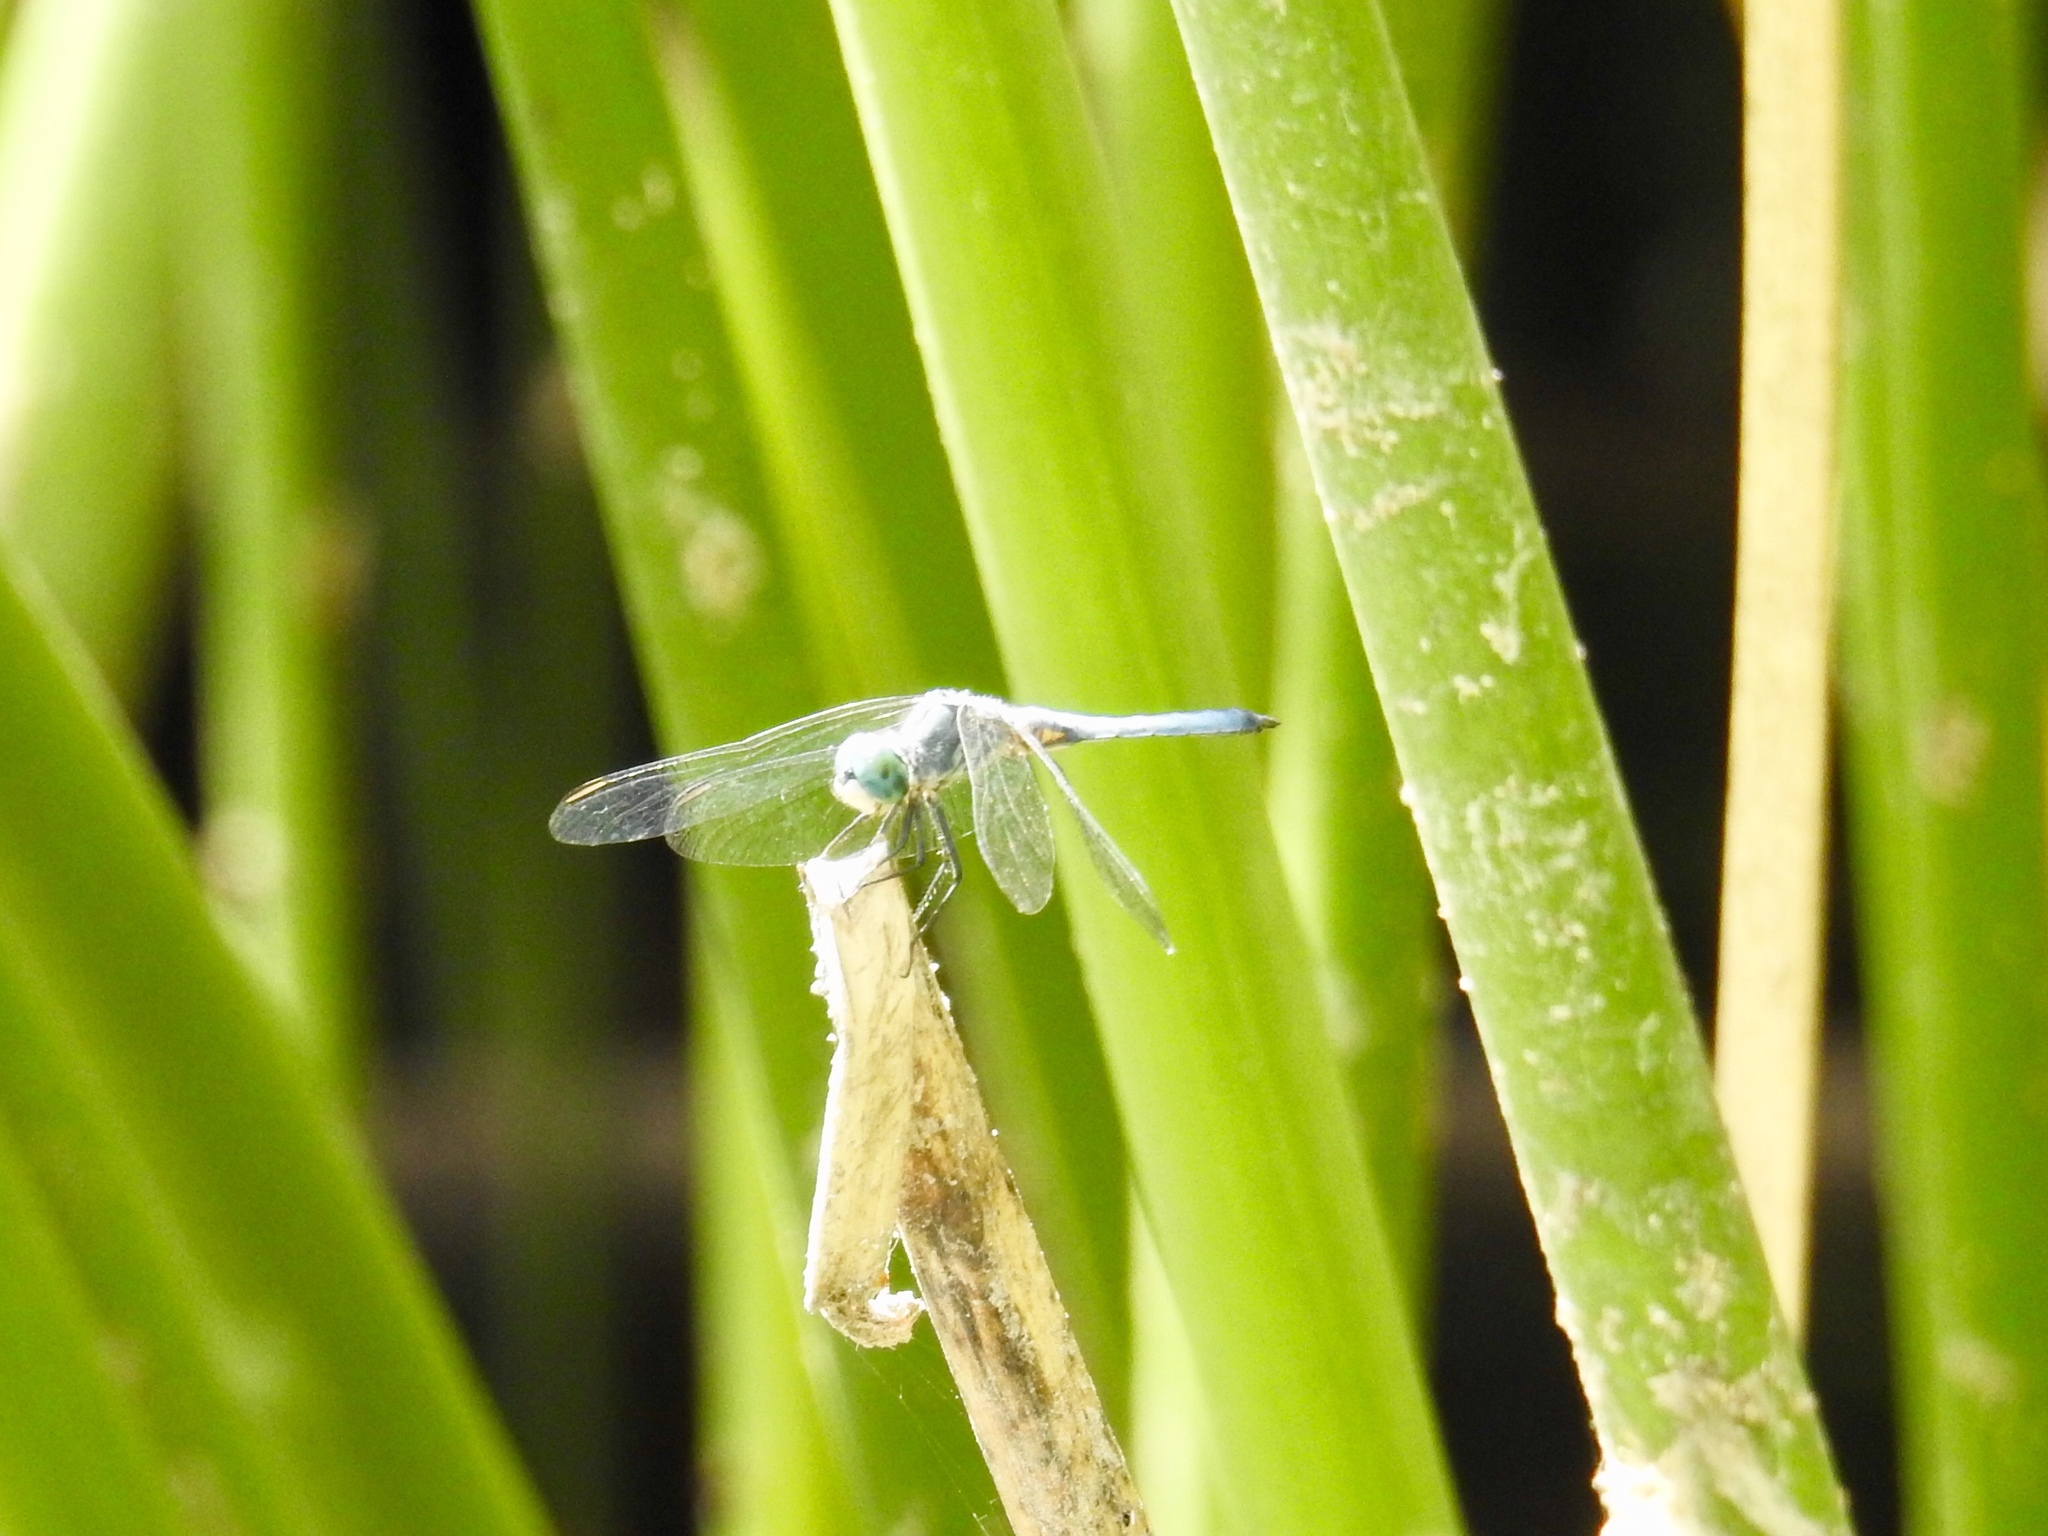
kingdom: Animalia
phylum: Arthropoda
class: Insecta
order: Odonata
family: Libellulidae
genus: Pachydiplax
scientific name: Pachydiplax longipennis
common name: Blue dasher
